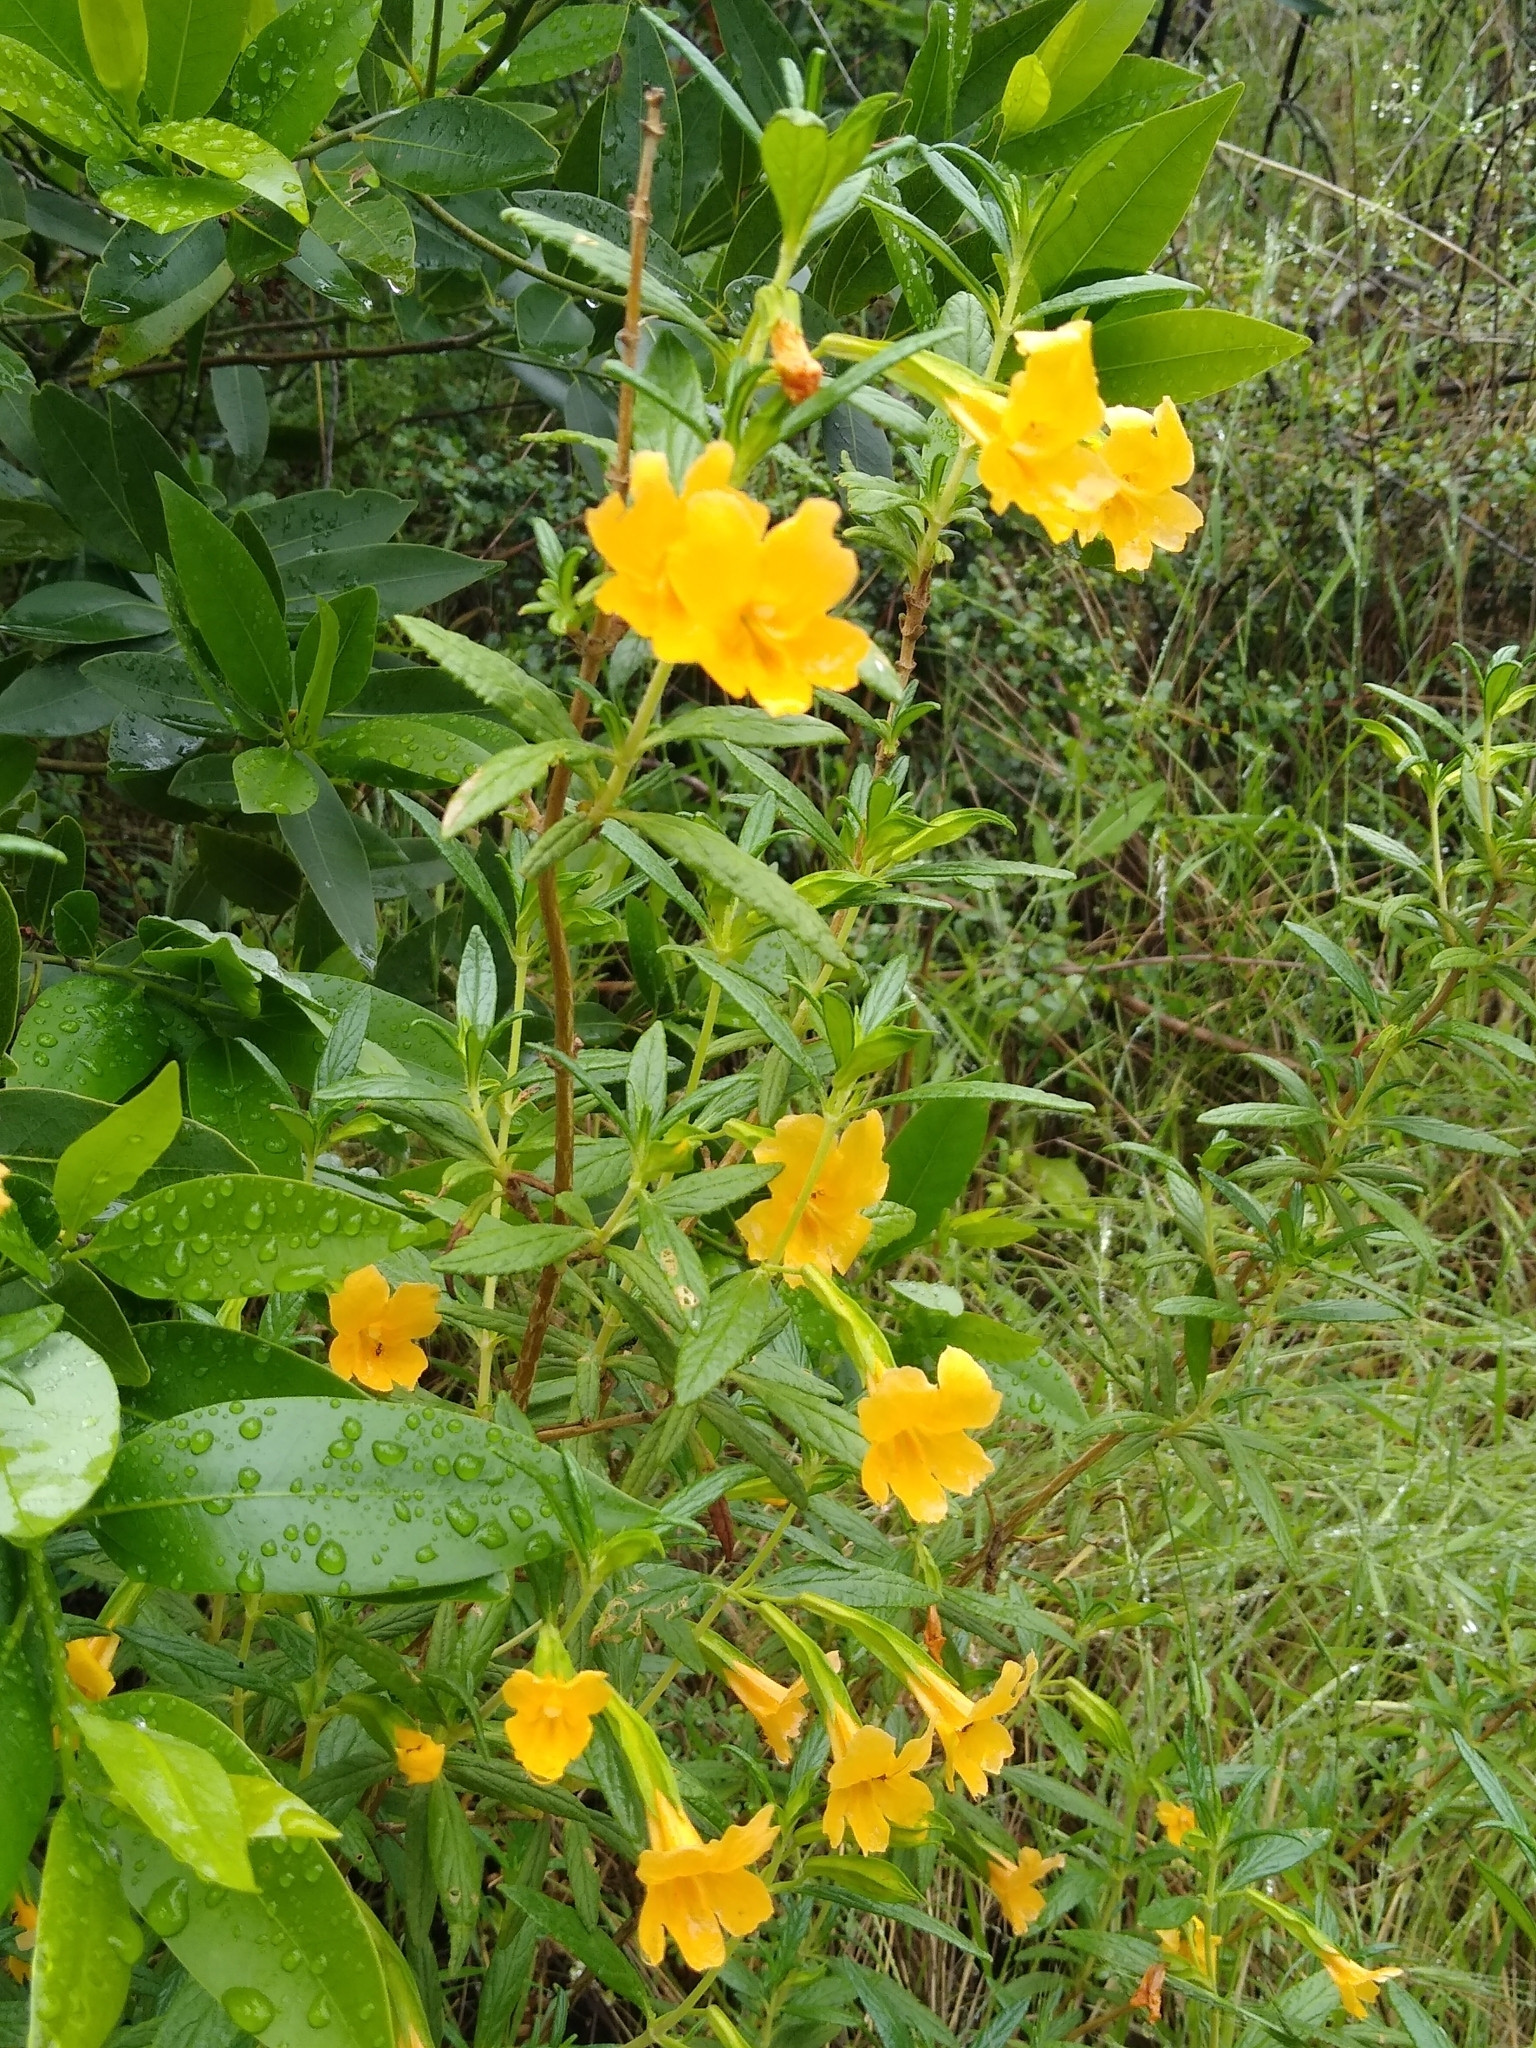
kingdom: Plantae
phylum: Tracheophyta
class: Magnoliopsida
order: Lamiales
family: Phrymaceae
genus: Diplacus
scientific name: Diplacus aurantiacus
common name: Bush monkey-flower
